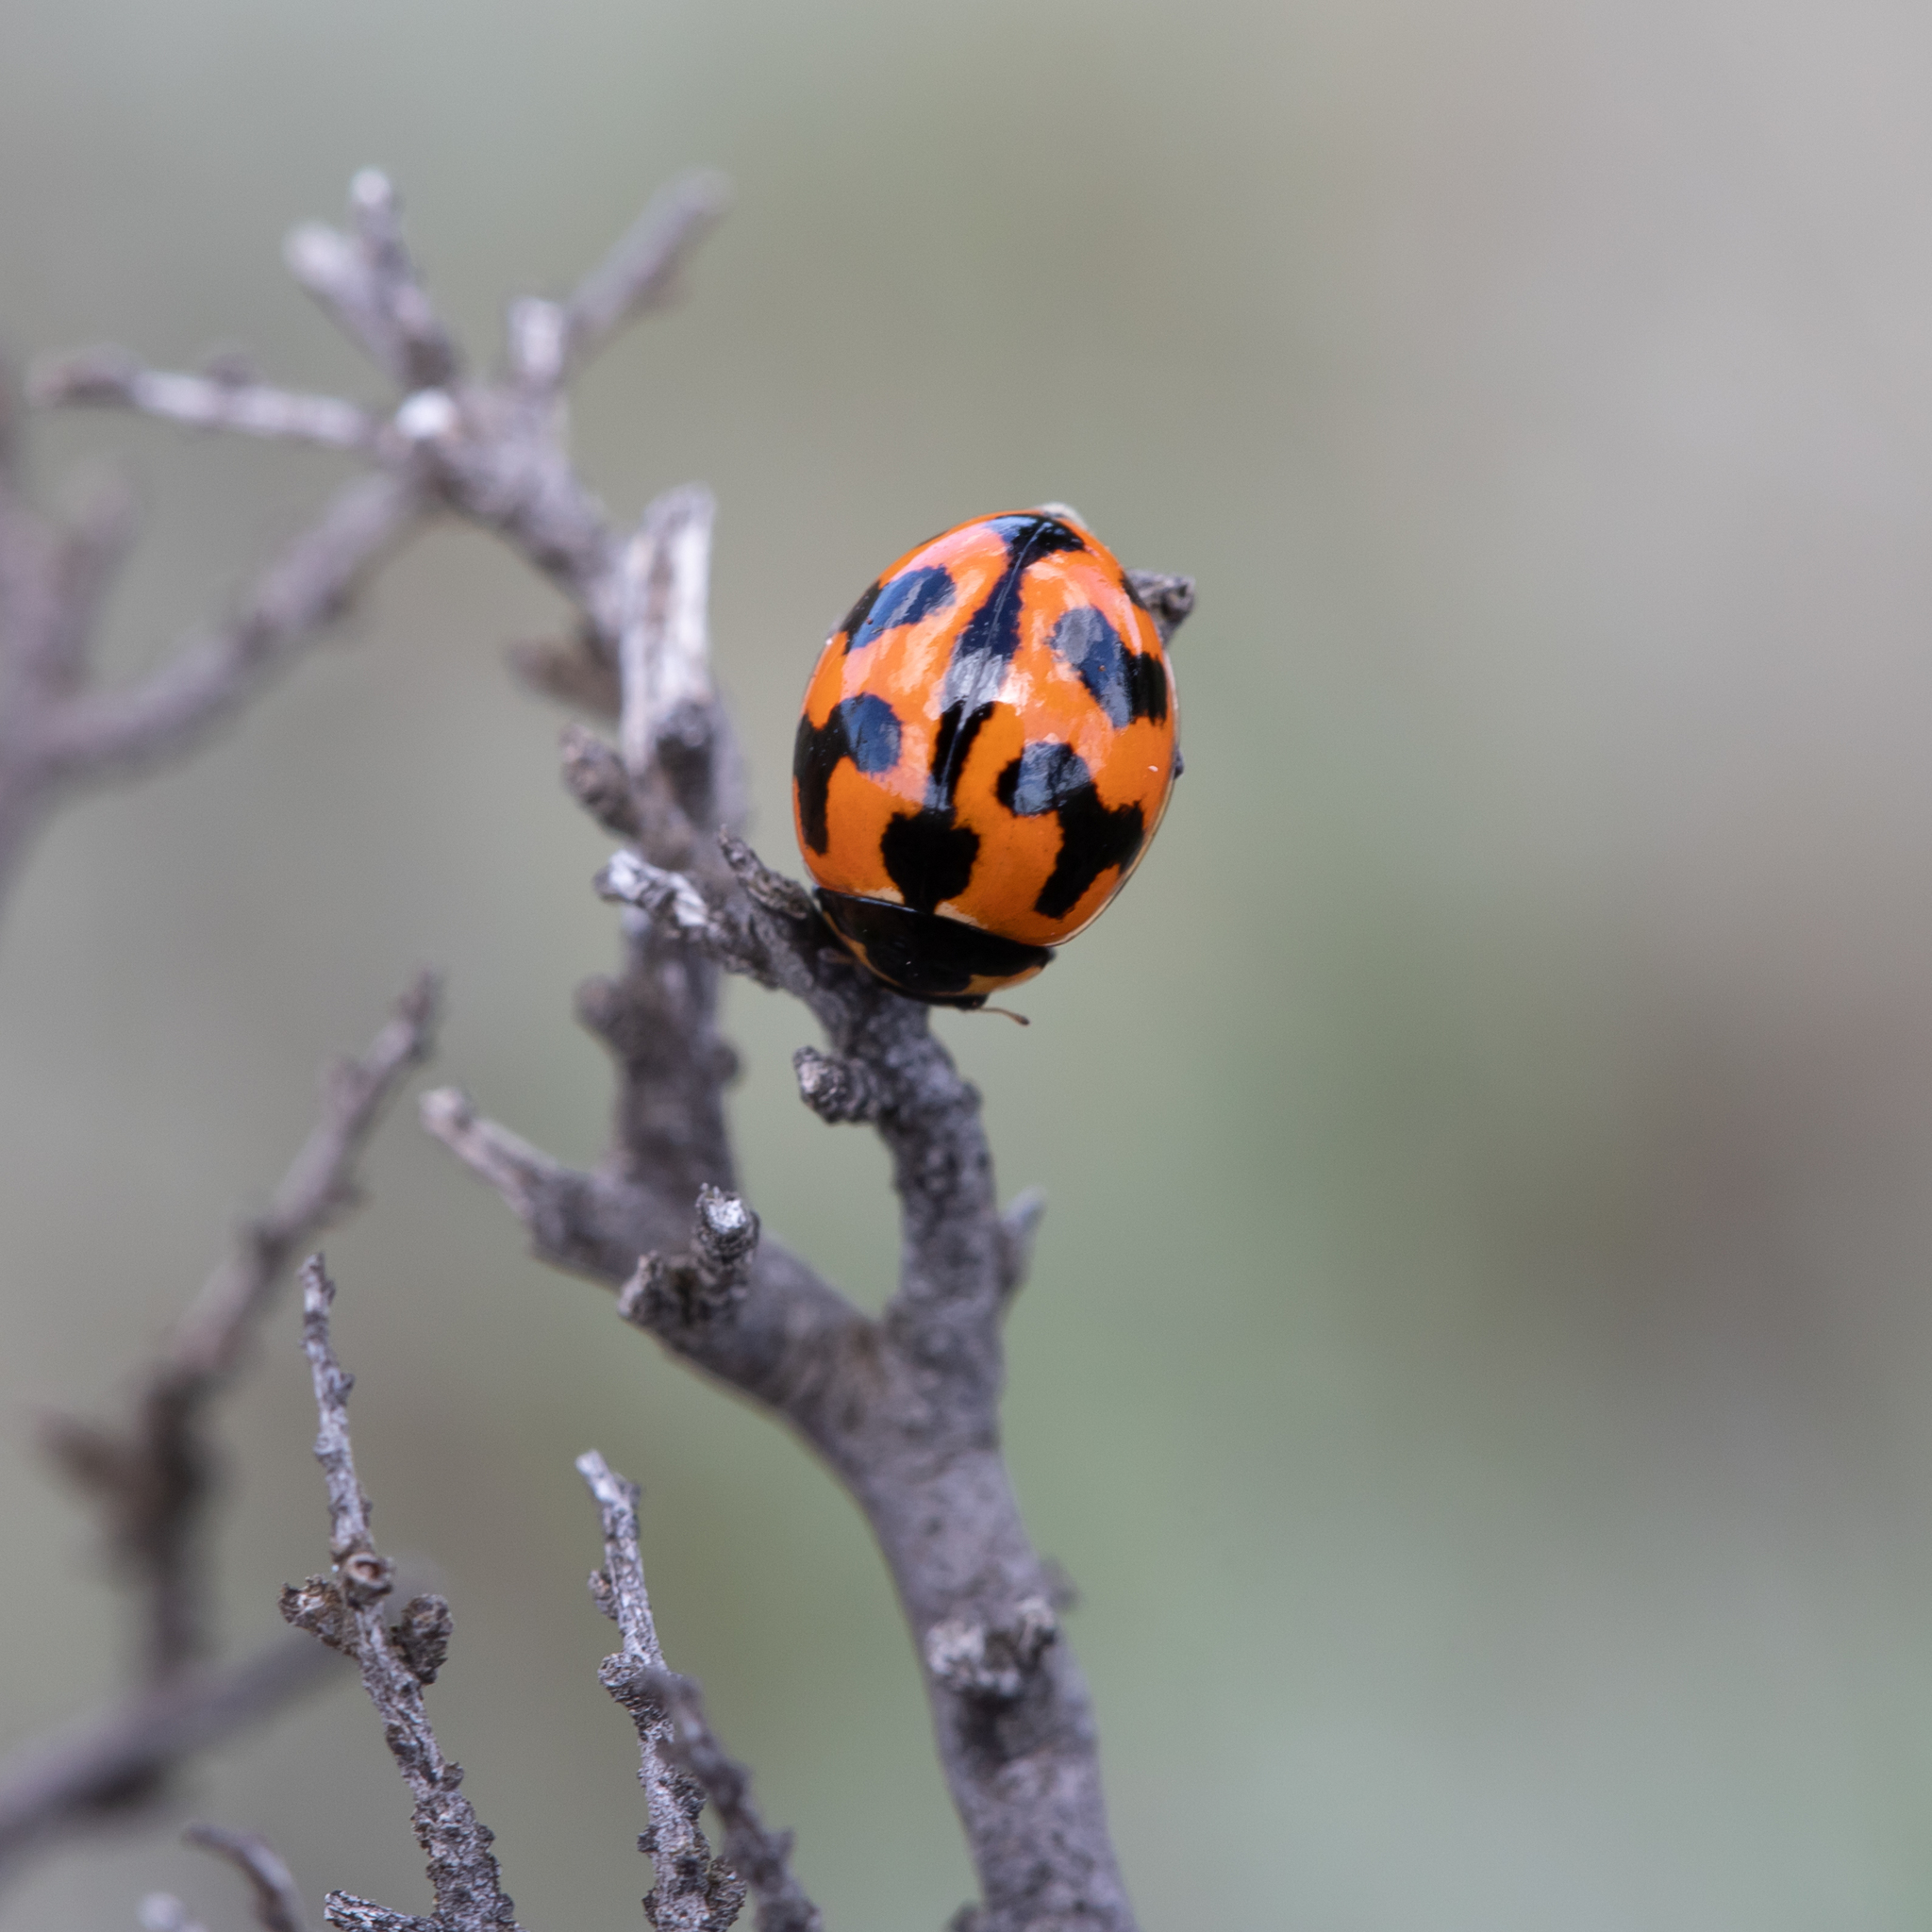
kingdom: Animalia
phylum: Arthropoda
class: Insecta
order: Coleoptera
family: Coccinellidae
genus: Coccinella
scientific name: Coccinella transversalis
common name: Transverse lady beetle
